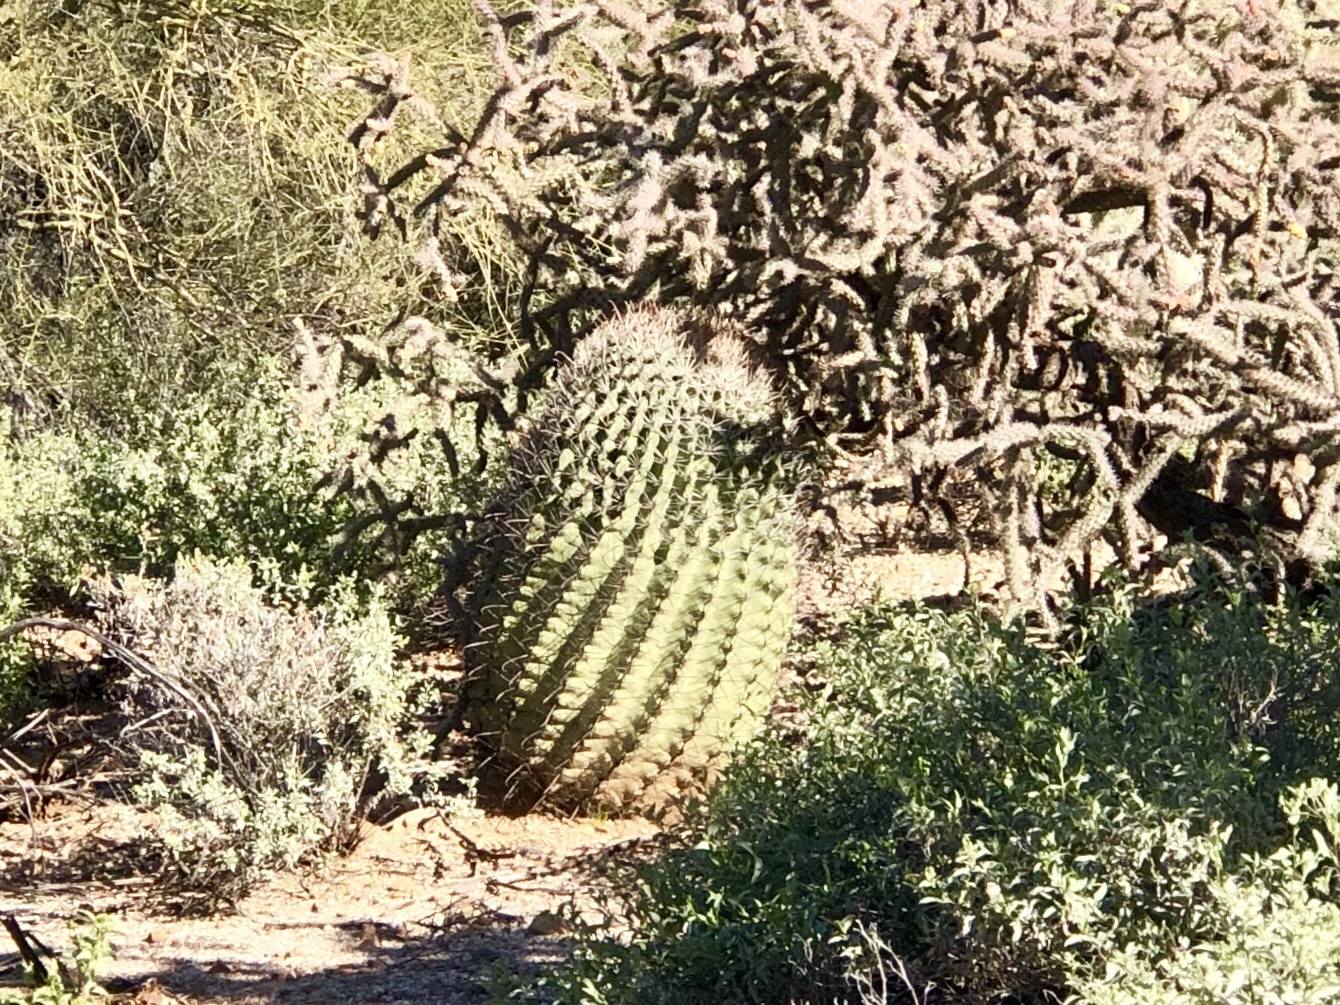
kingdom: Plantae
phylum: Tracheophyta
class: Magnoliopsida
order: Caryophyllales
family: Cactaceae
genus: Ferocactus
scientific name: Ferocactus wislizeni
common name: Candy barrel cactus
